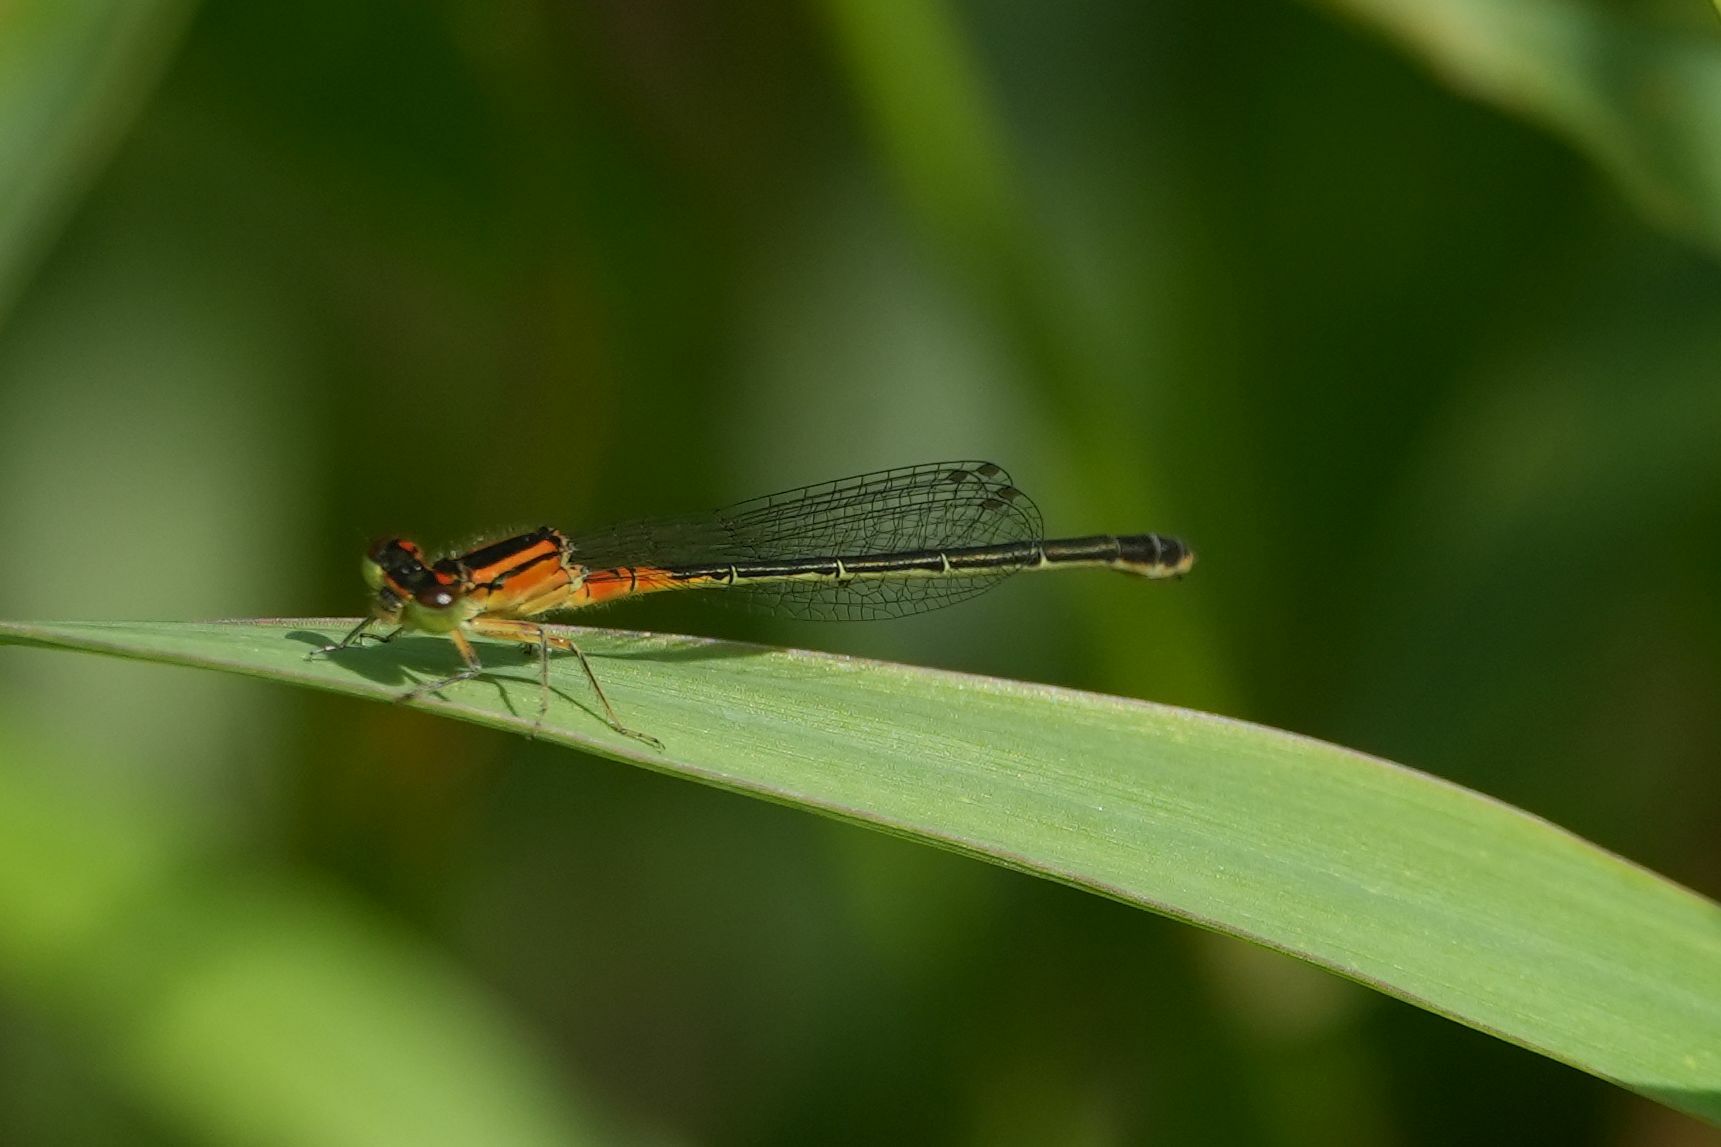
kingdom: Animalia
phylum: Arthropoda
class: Insecta
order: Odonata
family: Coenagrionidae
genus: Ischnura
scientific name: Ischnura verticalis
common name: Eastern forktail
